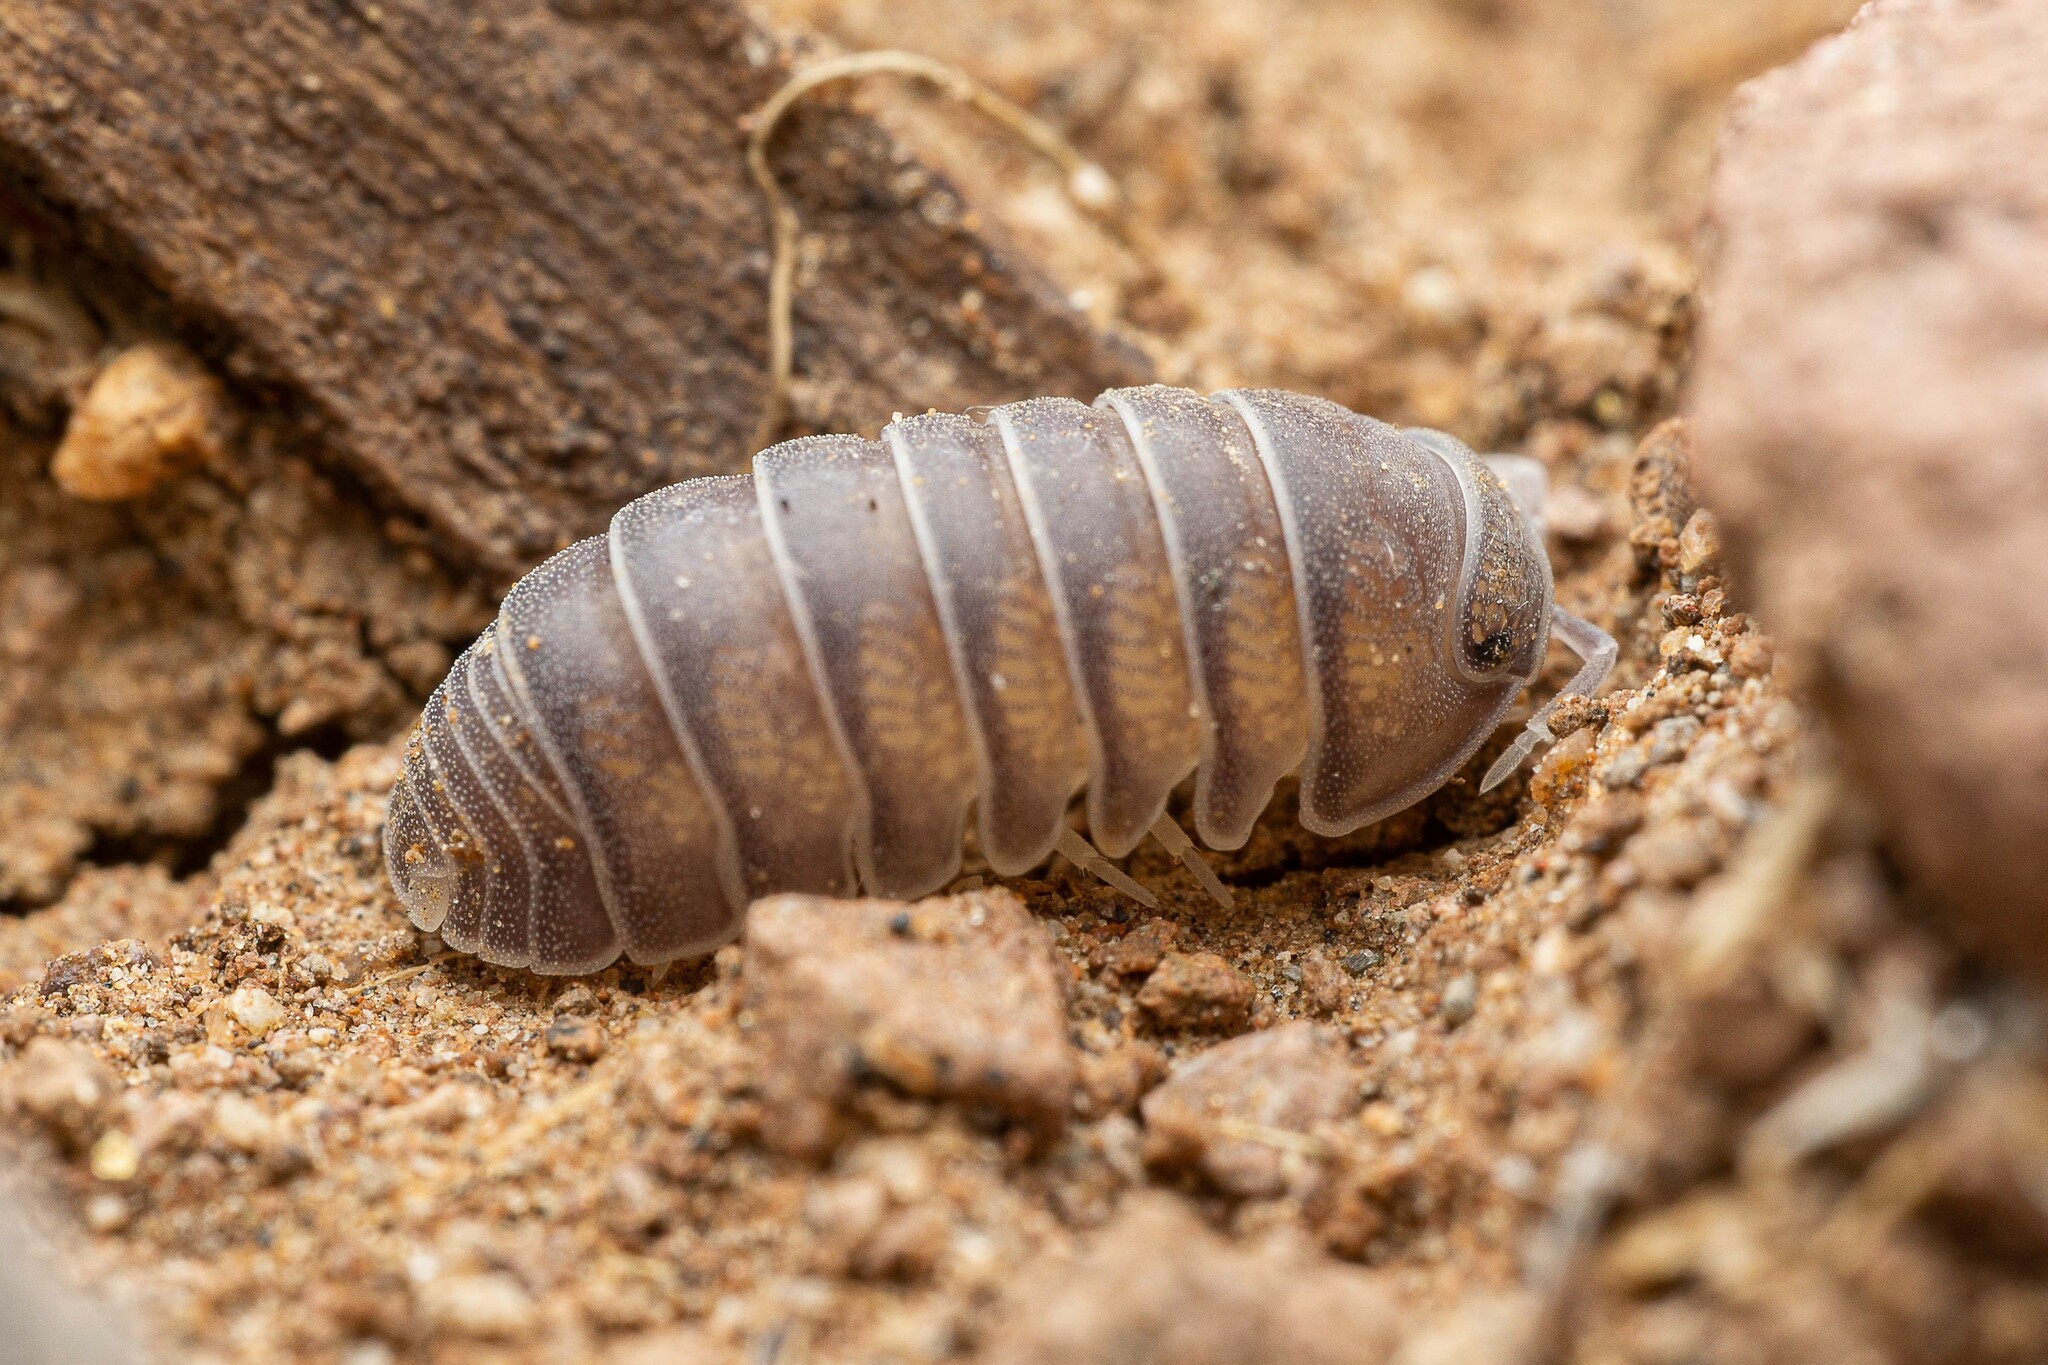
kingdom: Animalia
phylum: Arthropoda
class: Malacostraca
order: Isopoda
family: Armadillidae
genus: Venezillo
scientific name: Venezillo arizonicus
